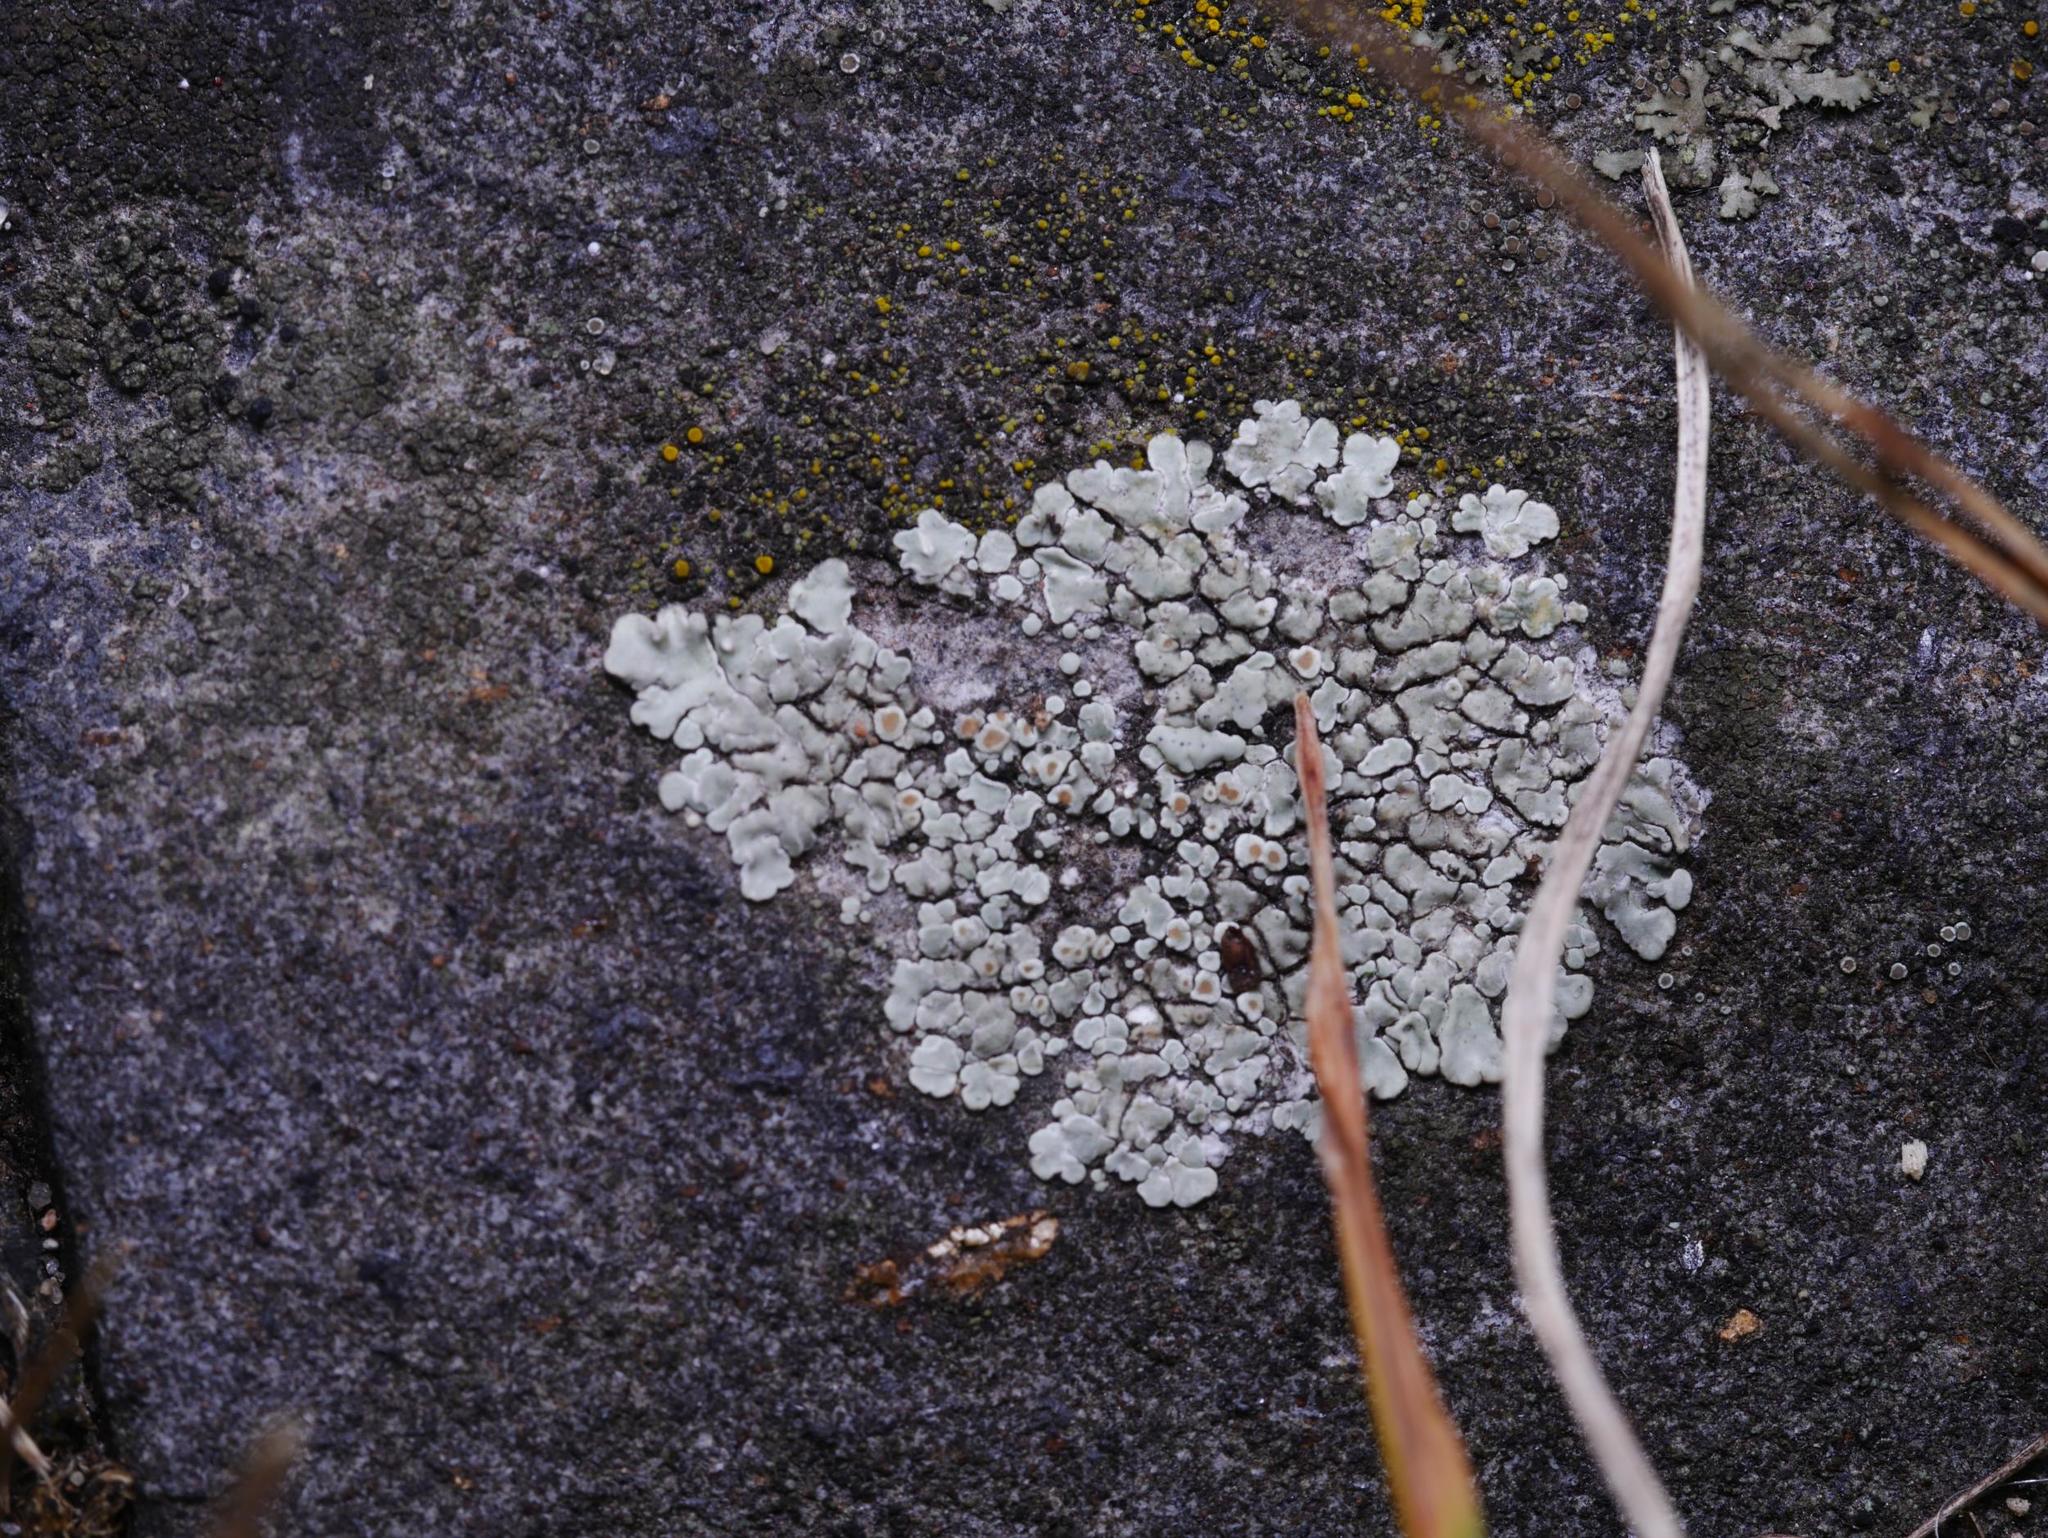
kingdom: Fungi
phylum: Ascomycota
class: Lecanoromycetes
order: Lecanorales
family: Lecanoraceae
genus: Protoparmeliopsis
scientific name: Protoparmeliopsis muralis
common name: Stonewall rim lichen
